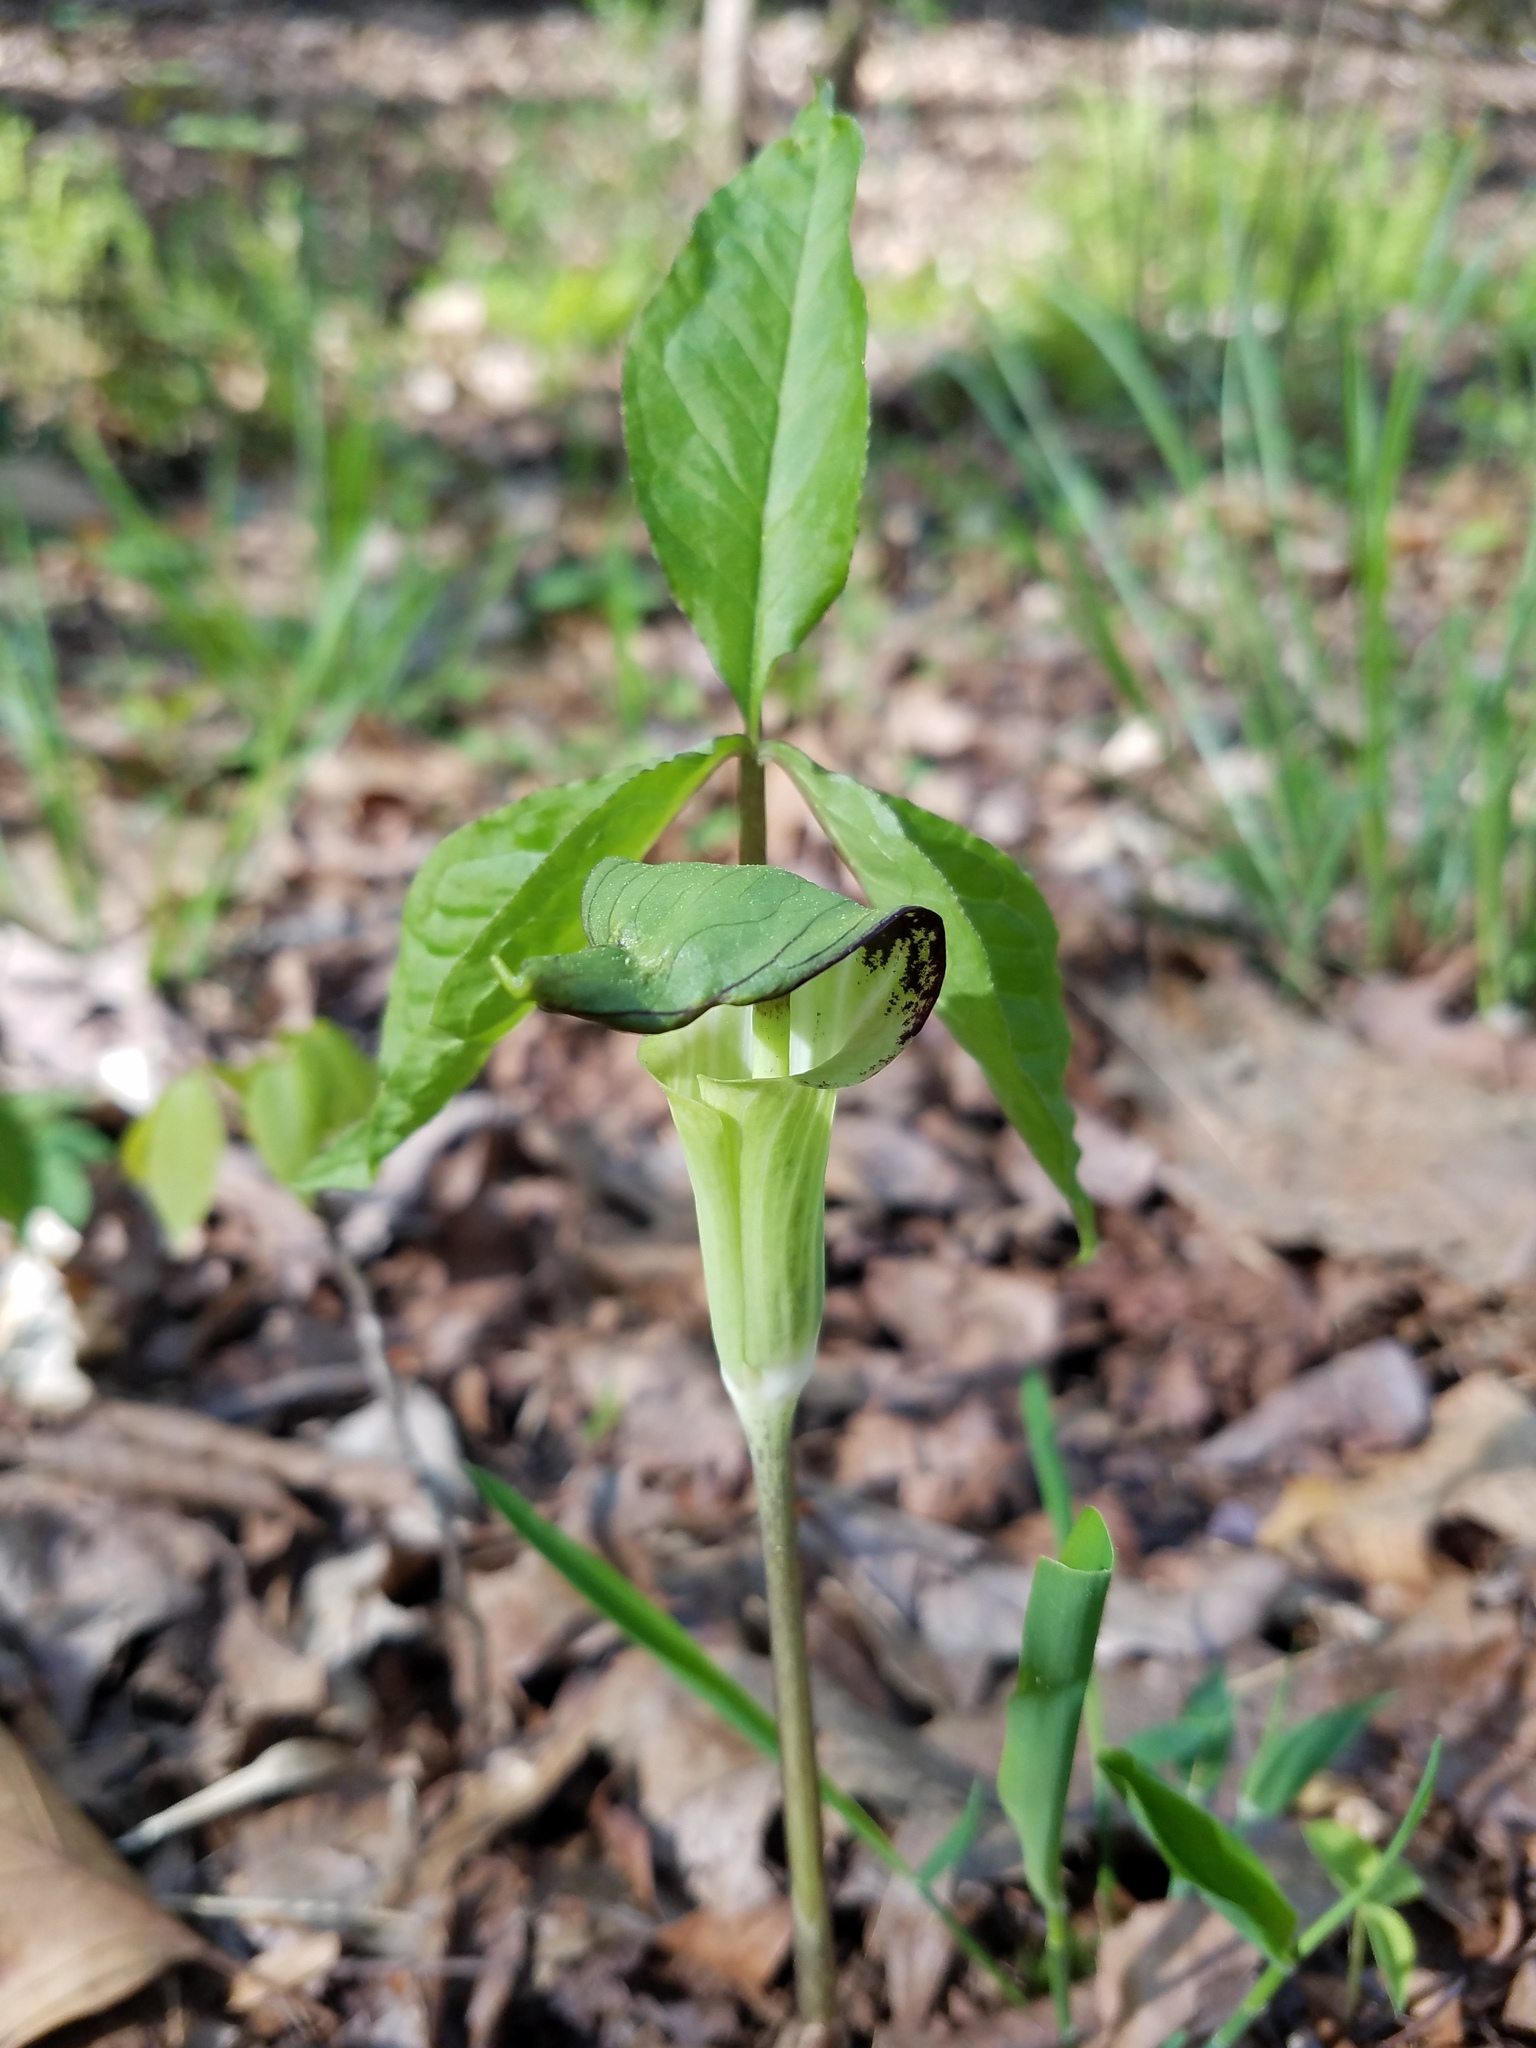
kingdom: Plantae
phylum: Tracheophyta
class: Liliopsida
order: Alismatales
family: Araceae
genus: Arisaema
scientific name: Arisaema triphyllum
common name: Jack-in-the-pulpit
